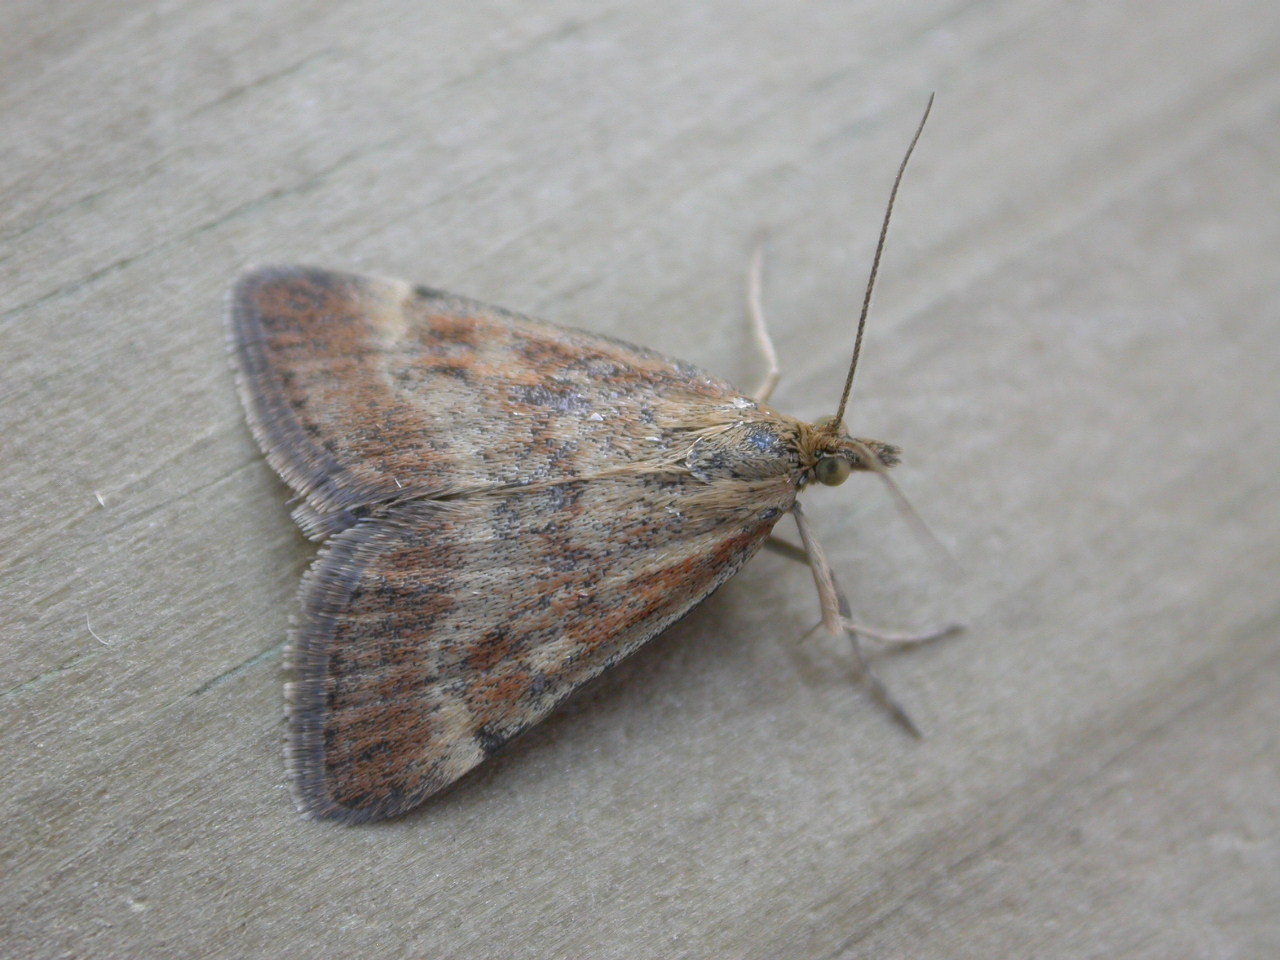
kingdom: Animalia
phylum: Arthropoda
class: Insecta
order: Lepidoptera
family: Crambidae
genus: Pyrausta
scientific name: Pyrausta despicata
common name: Straw-barred pearl
